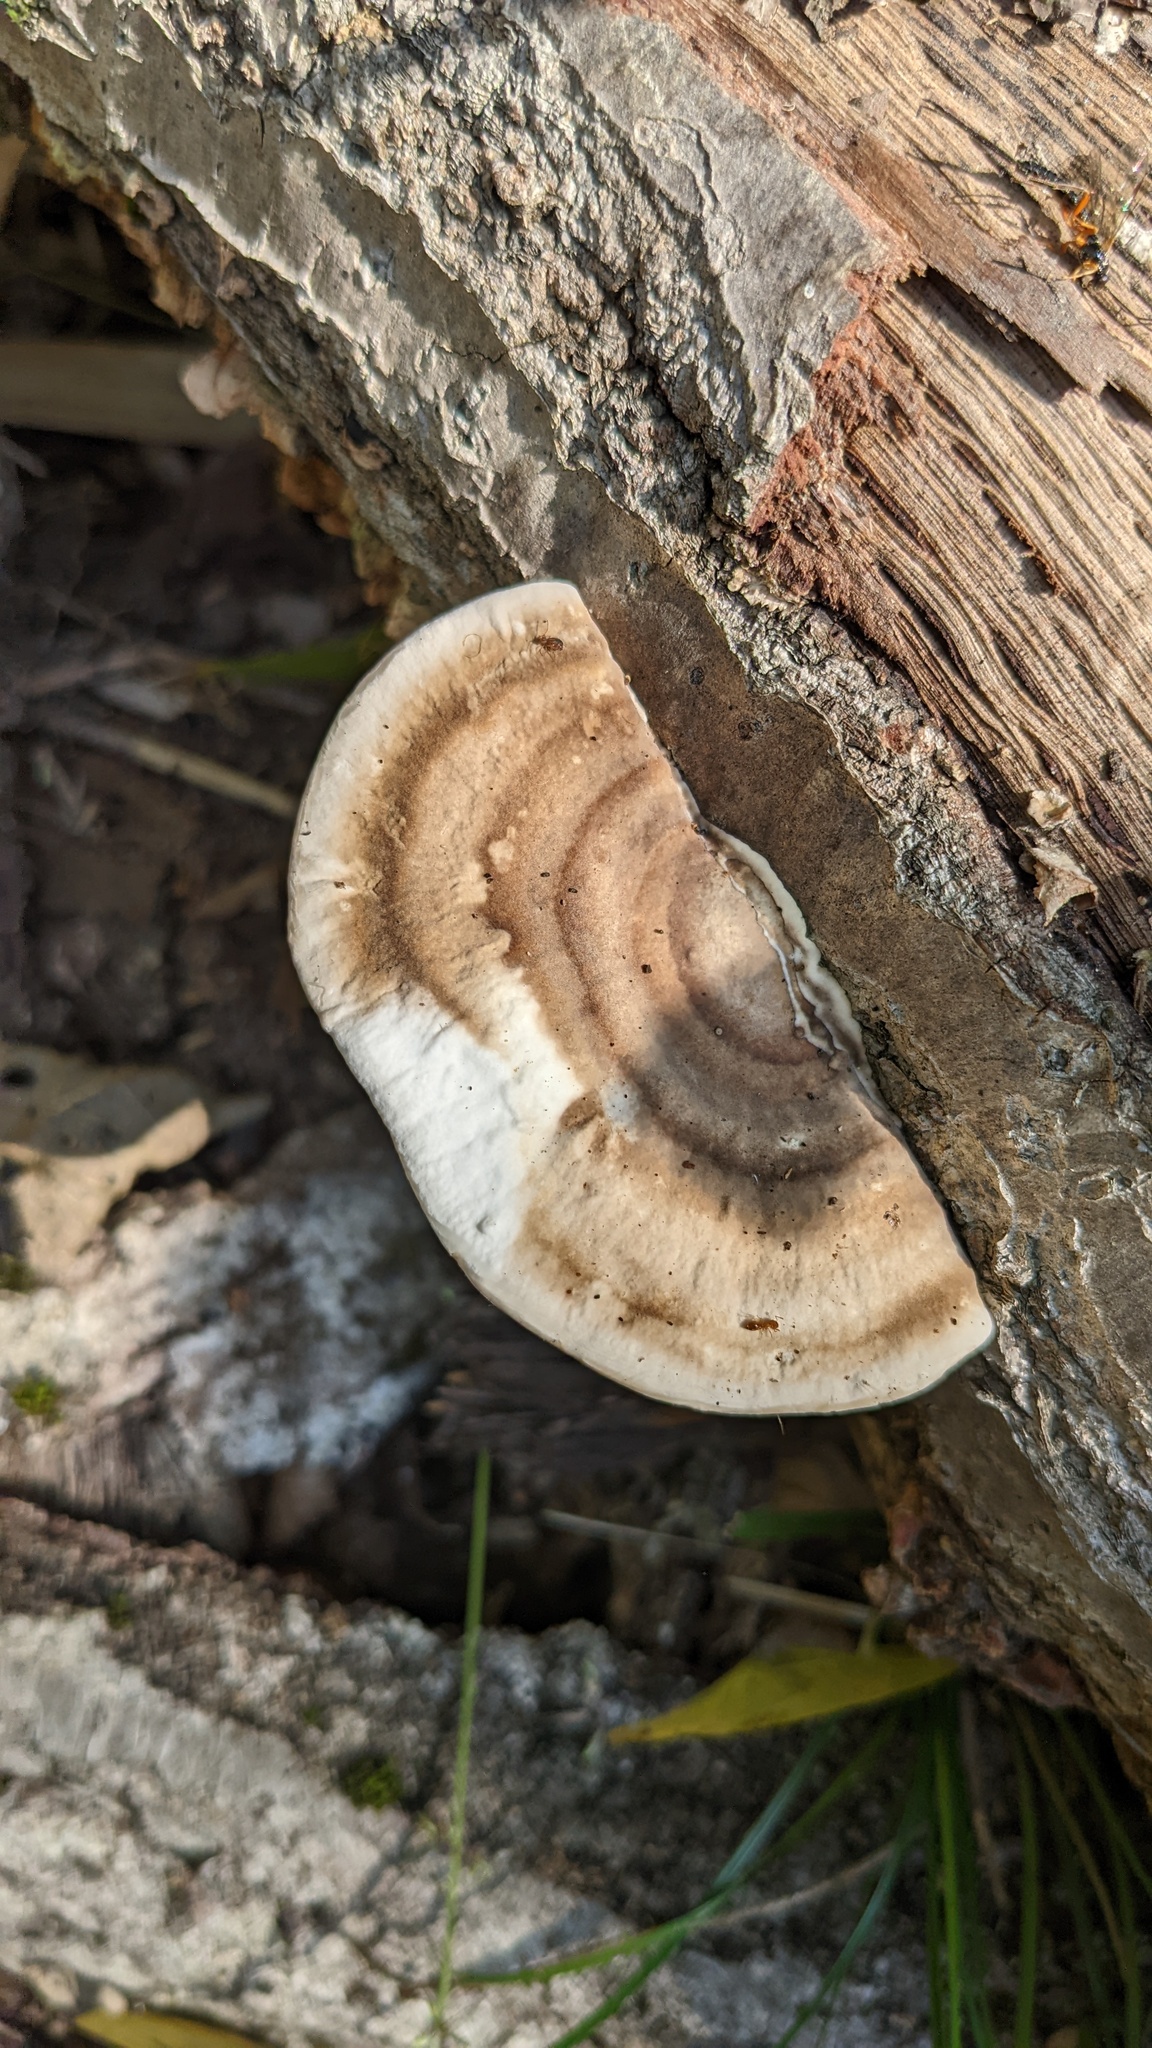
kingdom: Fungi
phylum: Basidiomycota
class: Agaricomycetes
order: Polyporales
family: Polyporaceae
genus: Trametes
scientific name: Trametes orientalis
